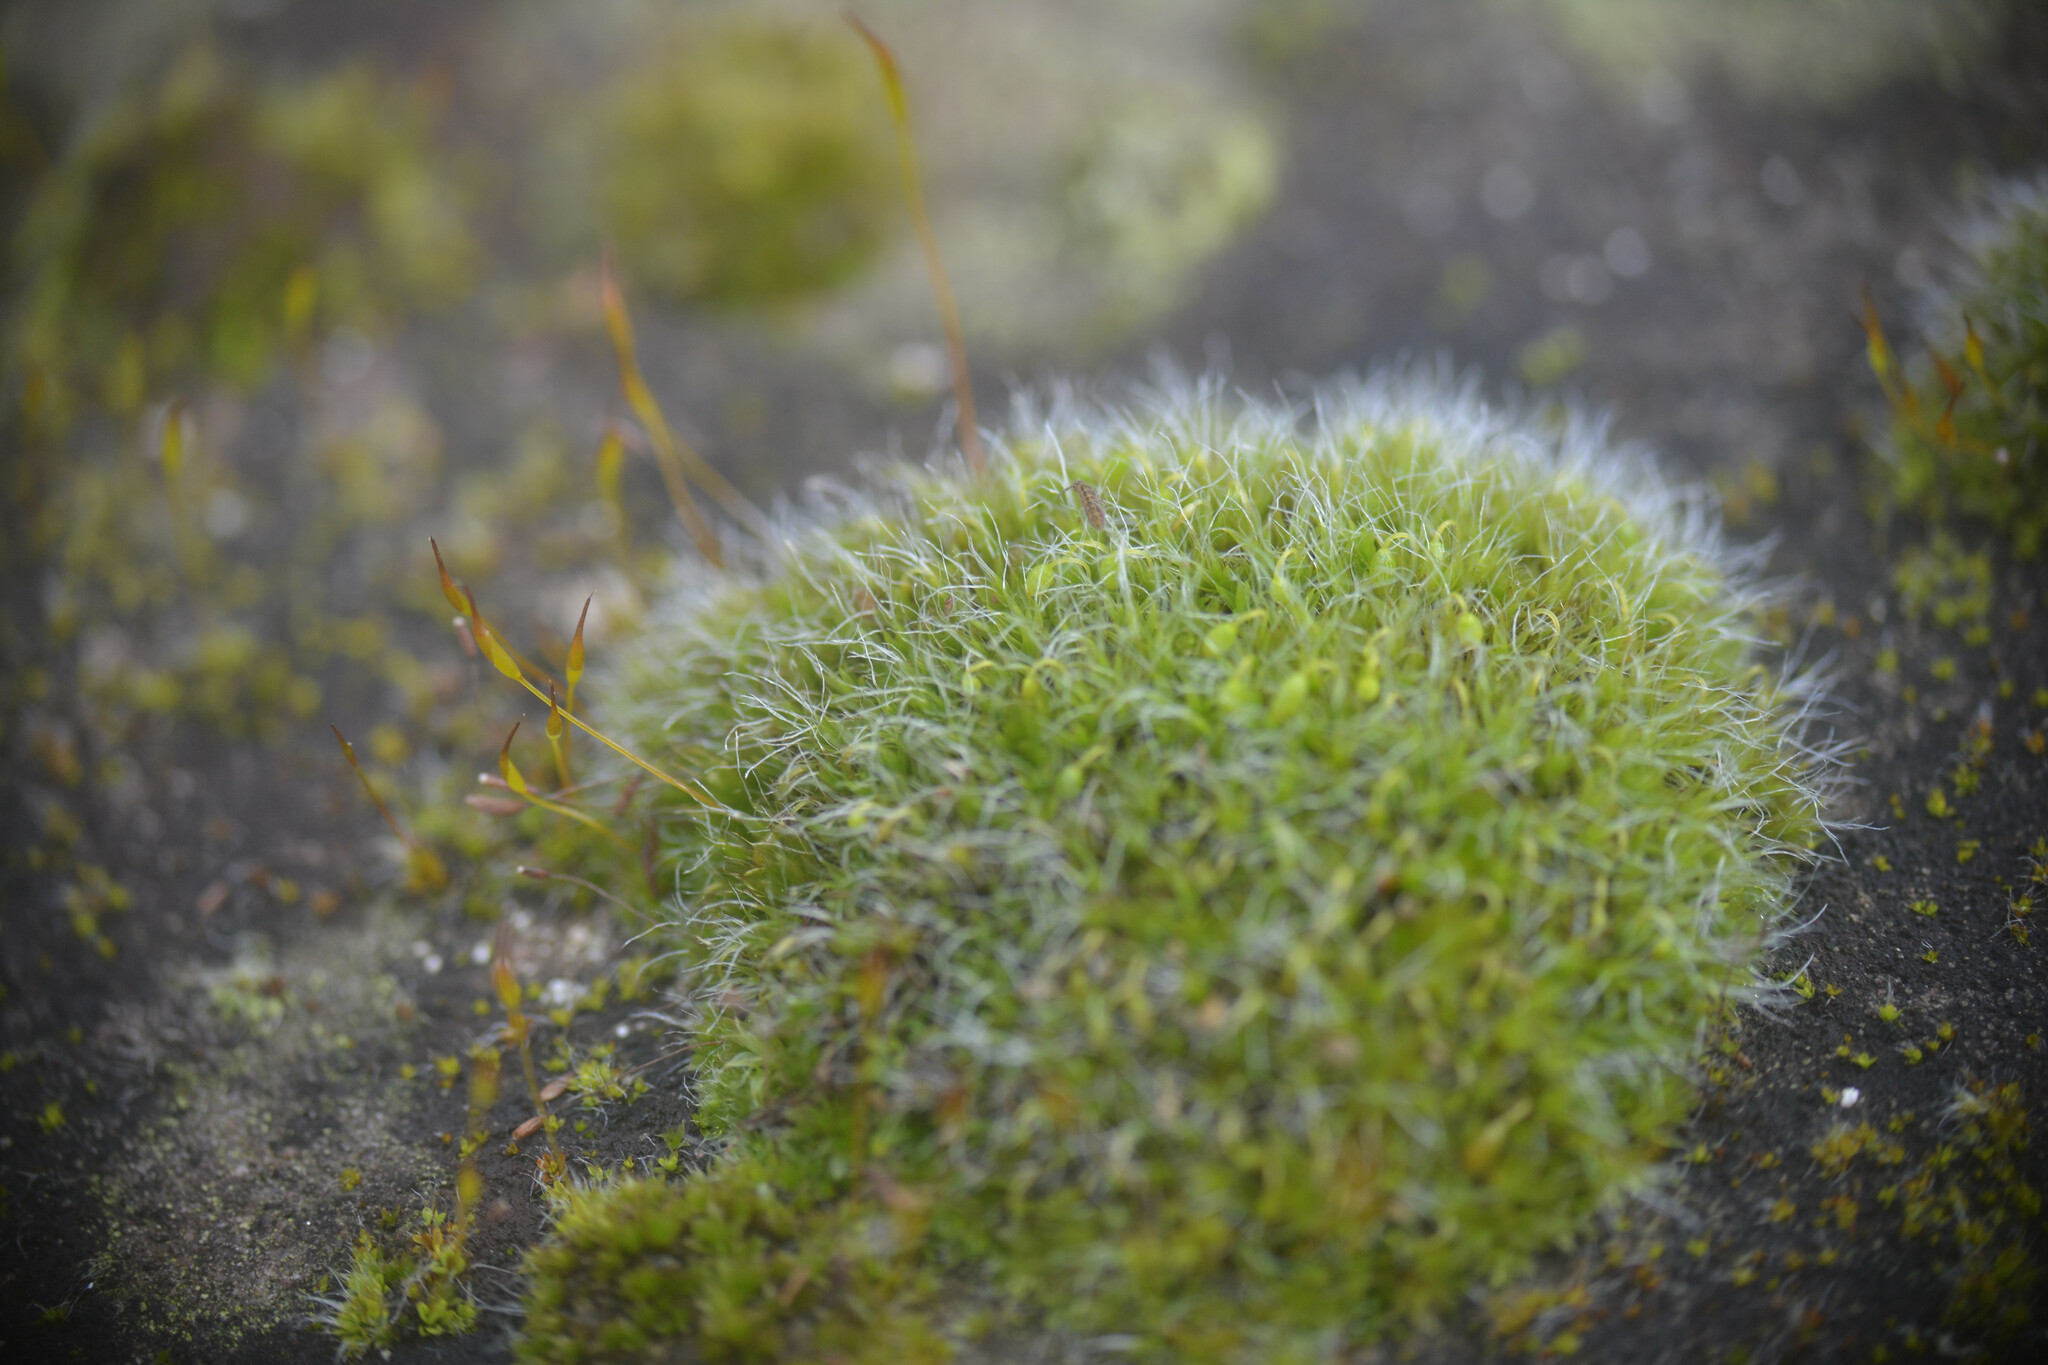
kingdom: Plantae
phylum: Bryophyta
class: Bryopsida
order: Grimmiales
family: Grimmiaceae
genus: Grimmia
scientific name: Grimmia pulvinata
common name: Grey-cushioned grimmia
